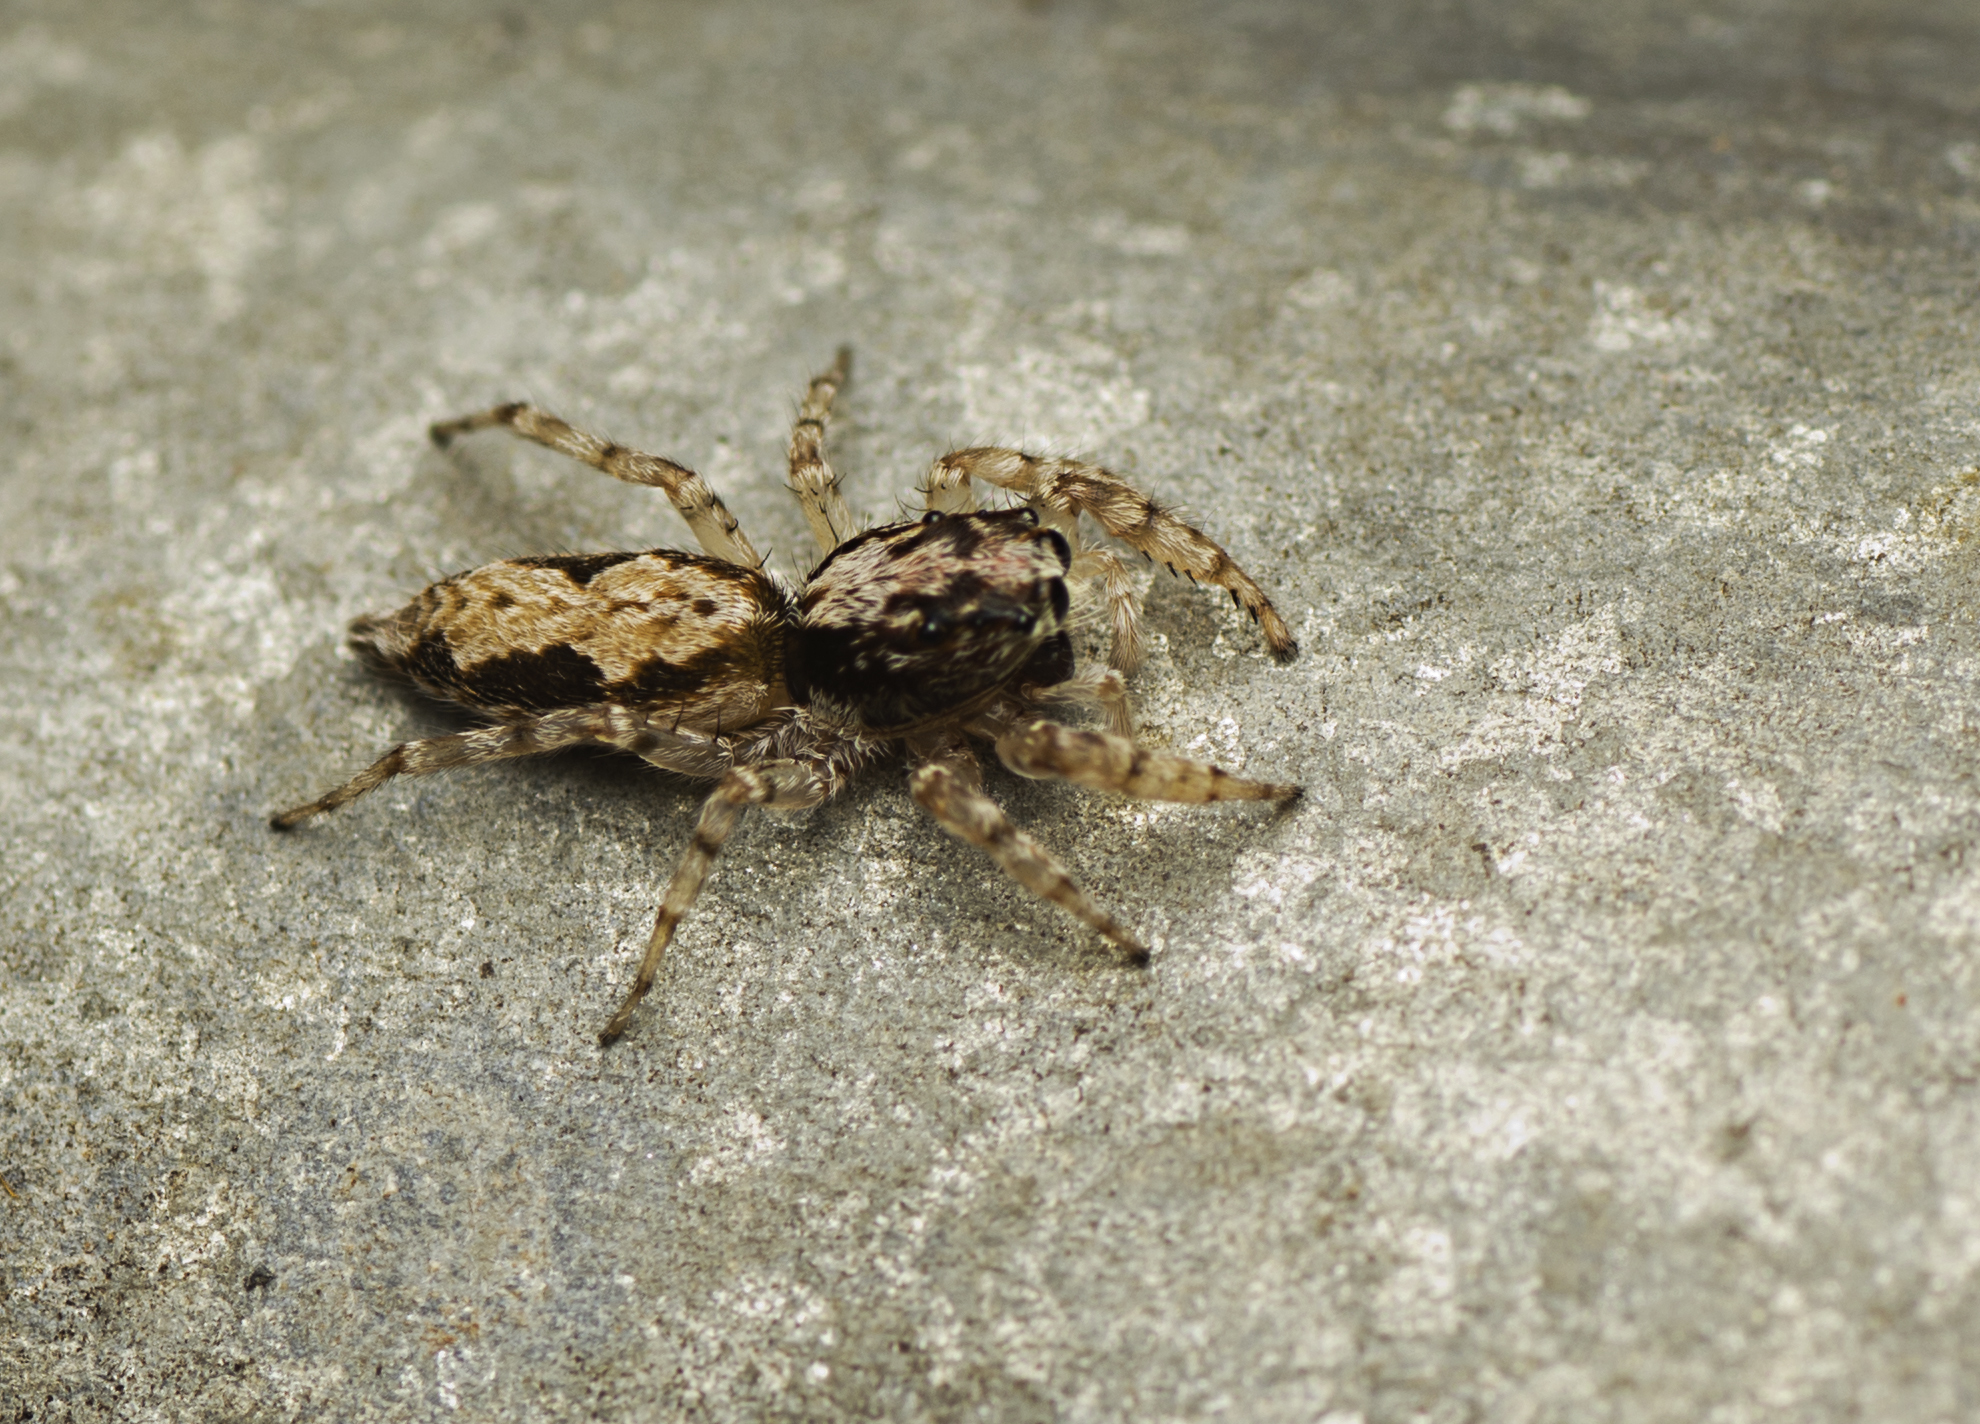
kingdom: Animalia
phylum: Arthropoda
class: Arachnida
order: Araneae
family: Salticidae
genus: Apricia
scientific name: Apricia bracteata
